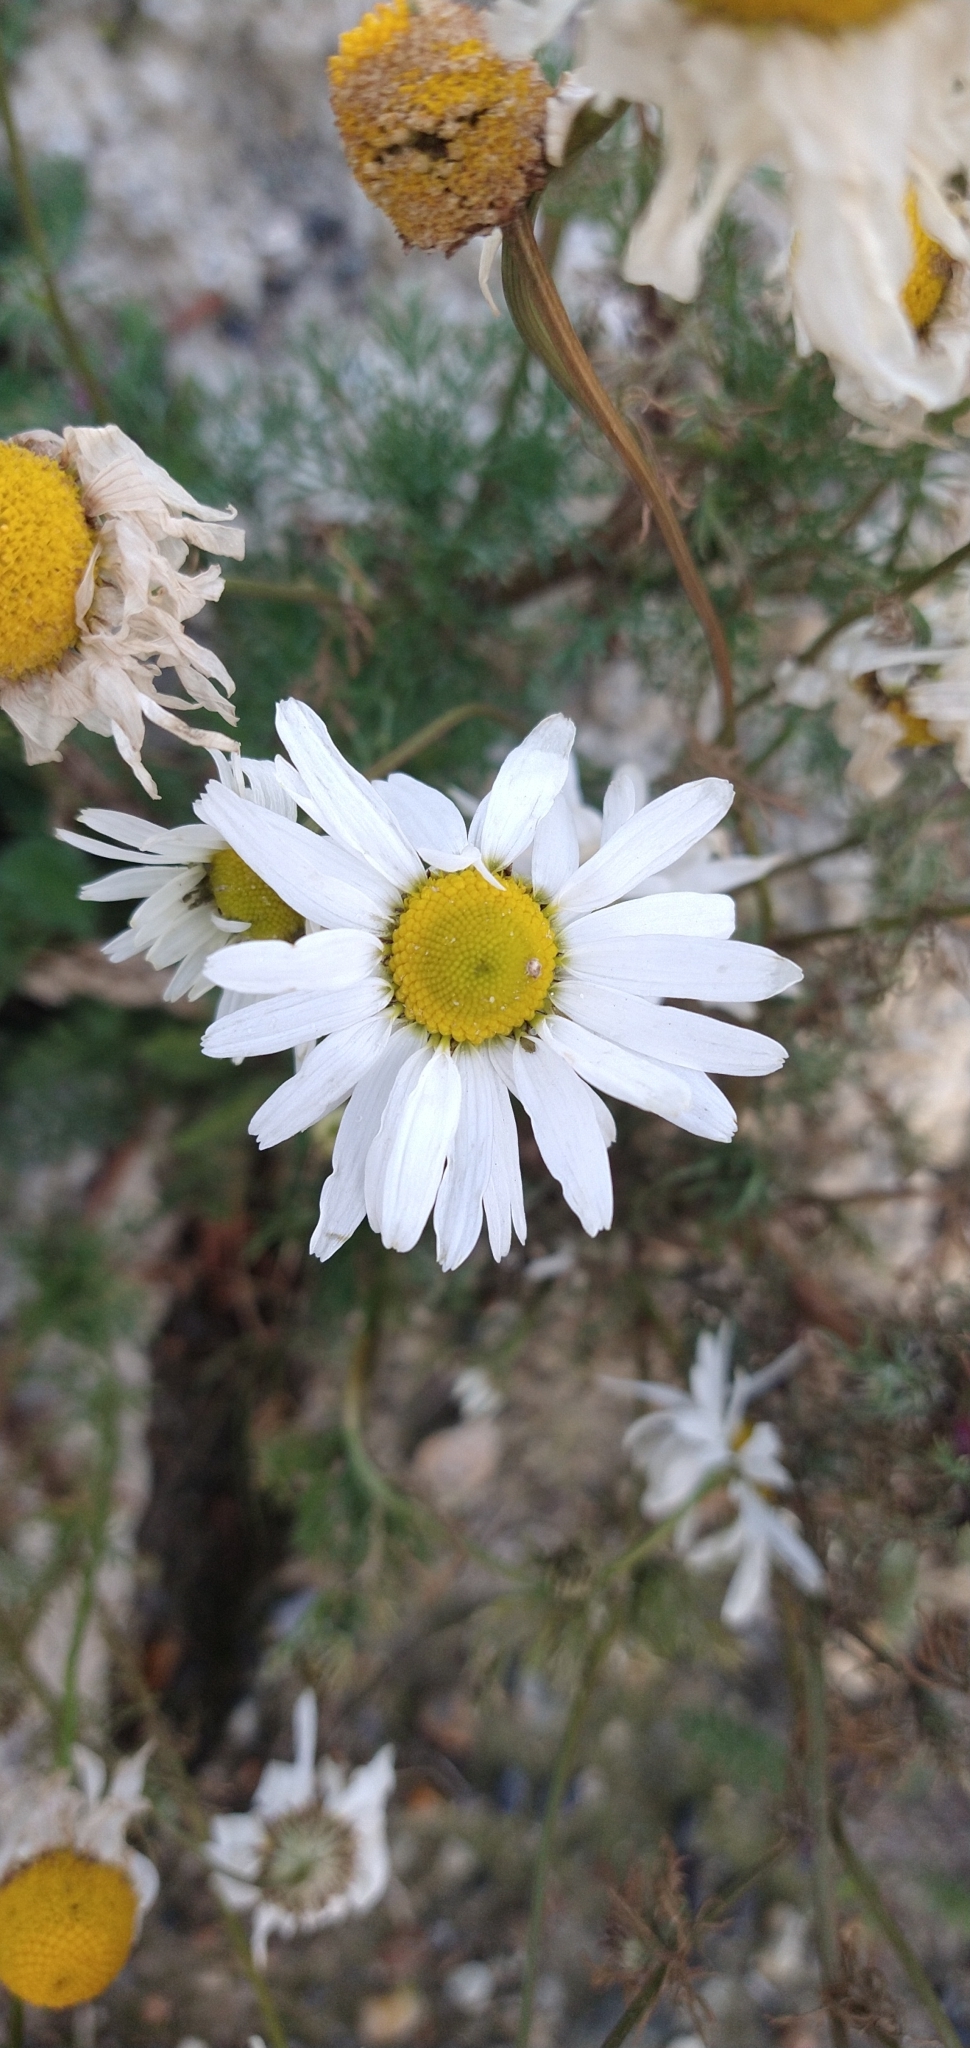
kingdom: Plantae
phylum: Tracheophyta
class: Magnoliopsida
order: Asterales
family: Asteraceae
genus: Tripleurospermum
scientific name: Tripleurospermum maritimum
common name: Sea mayweed
